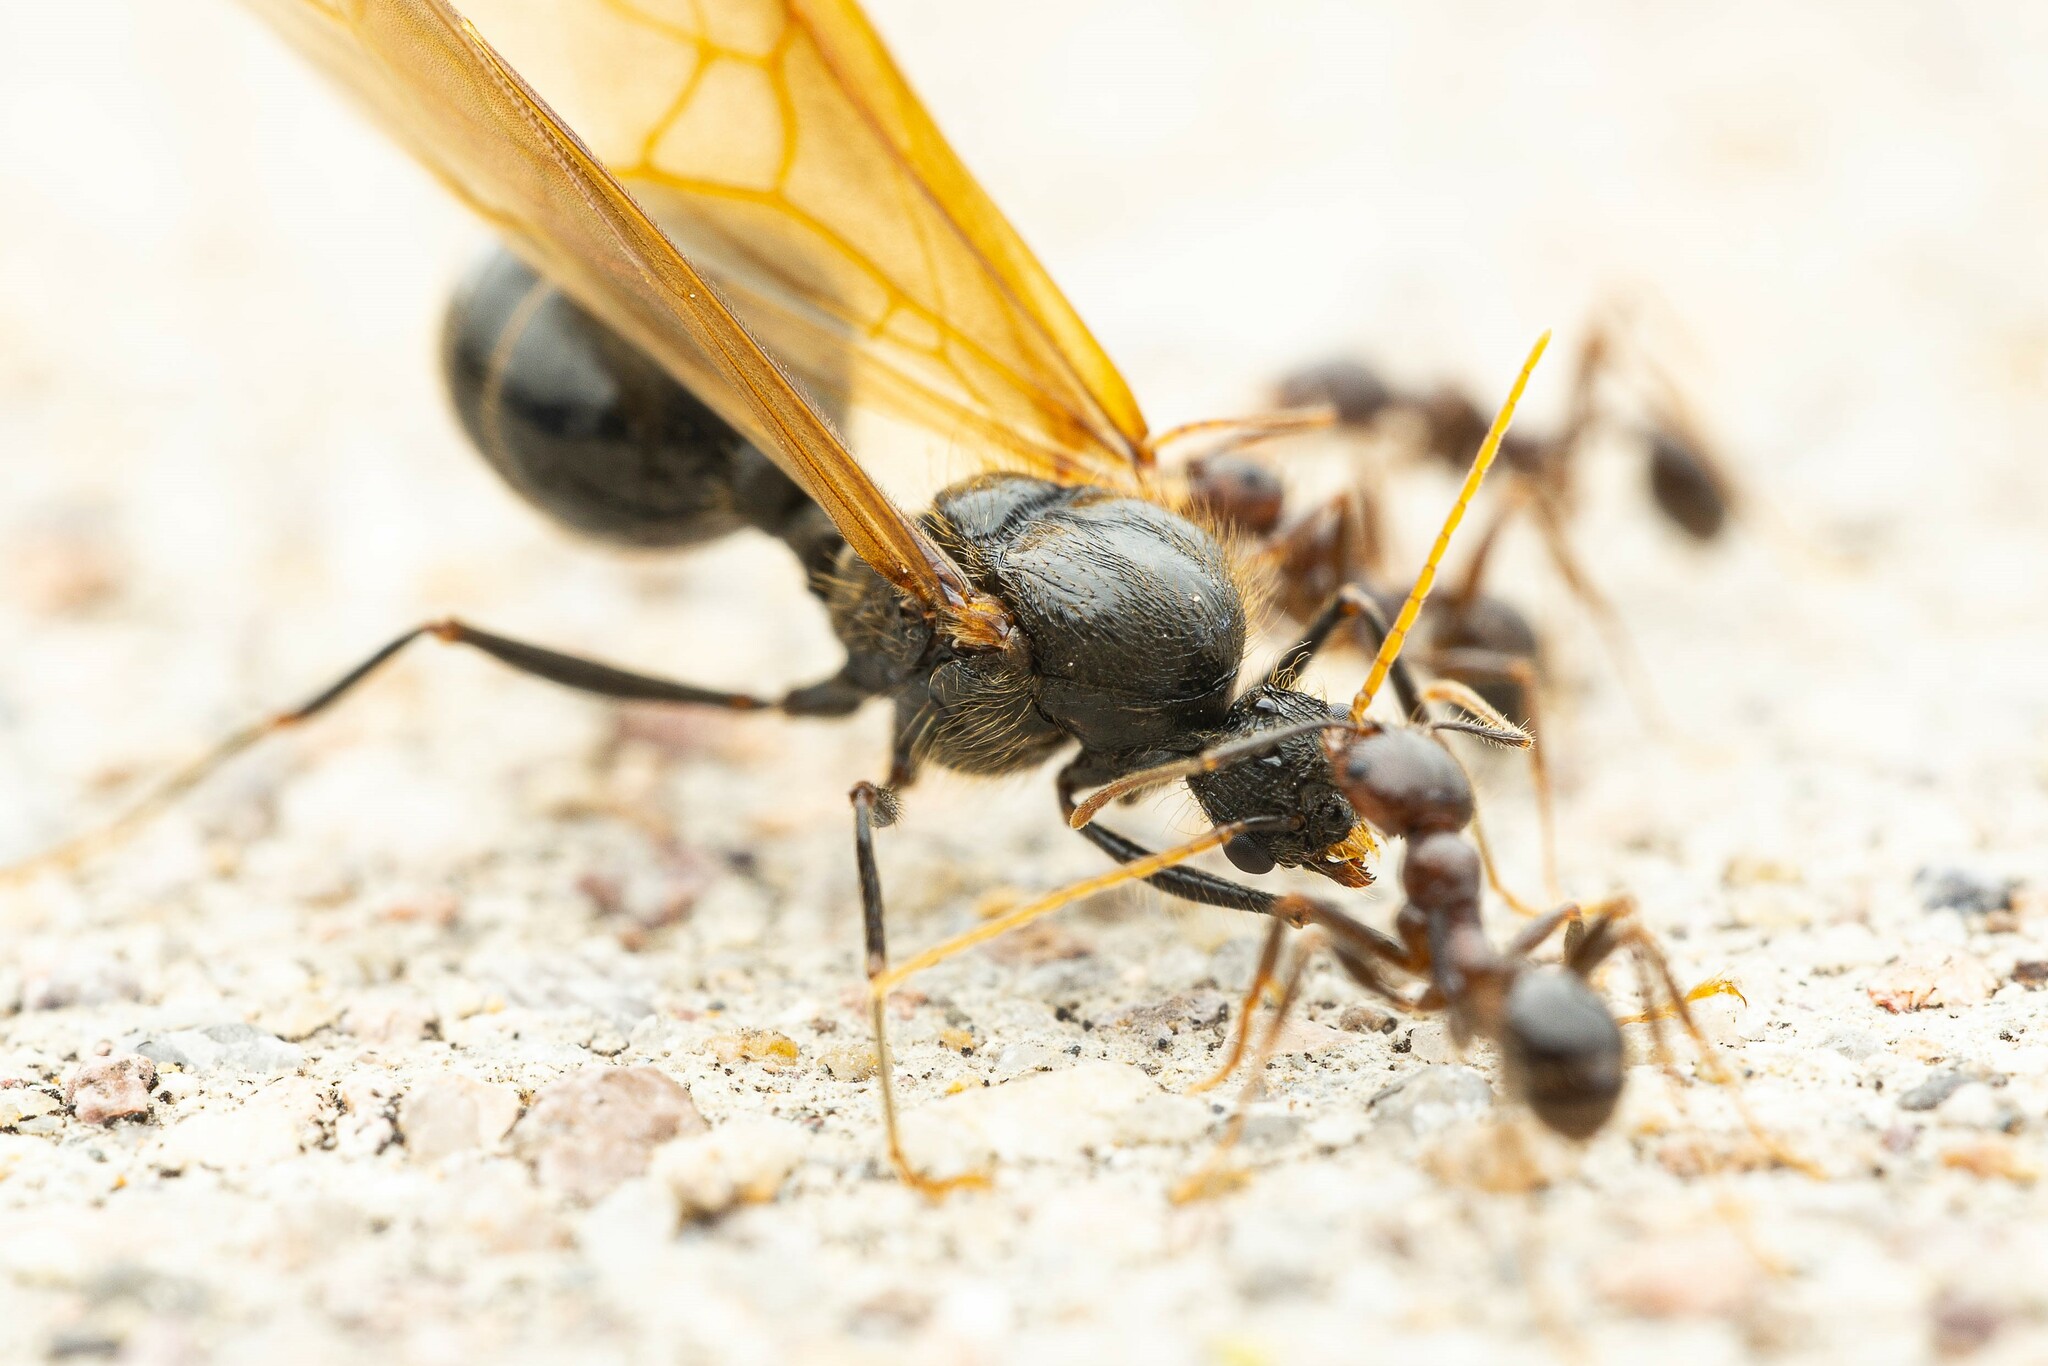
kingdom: Animalia
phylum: Arthropoda
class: Insecta
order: Hymenoptera
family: Formicidae
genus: Pheidole
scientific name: Pheidole rhea
